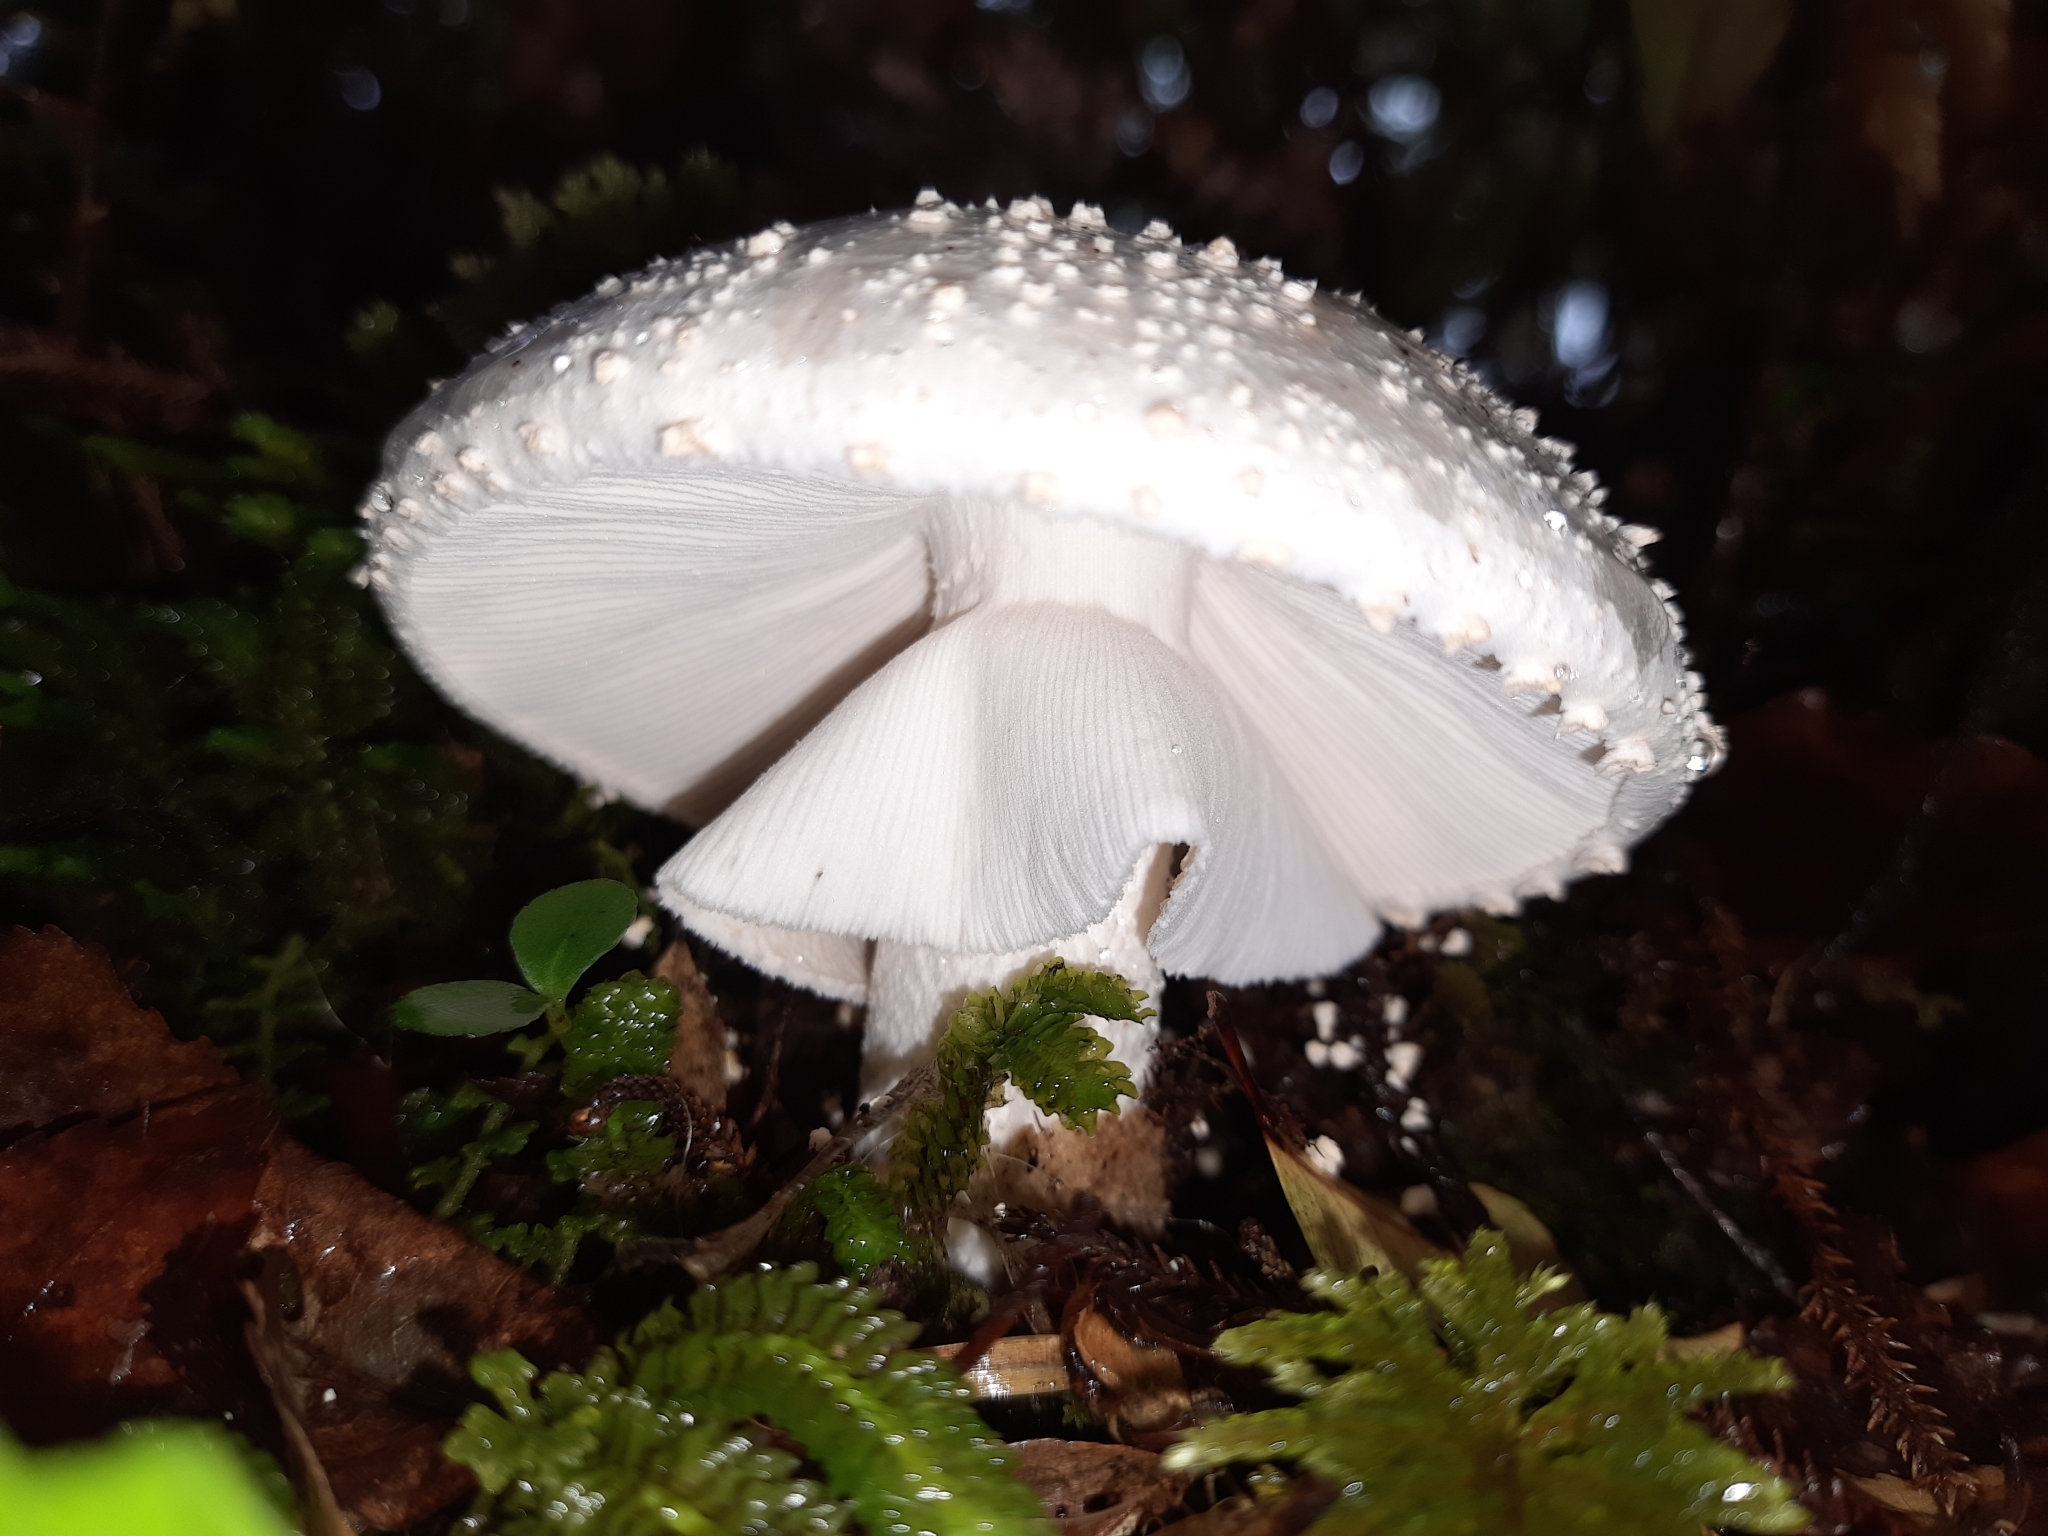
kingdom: Fungi
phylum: Basidiomycota
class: Agaricomycetes
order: Agaricales
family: Amanitaceae
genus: Amanita
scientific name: Amanita pareparina
